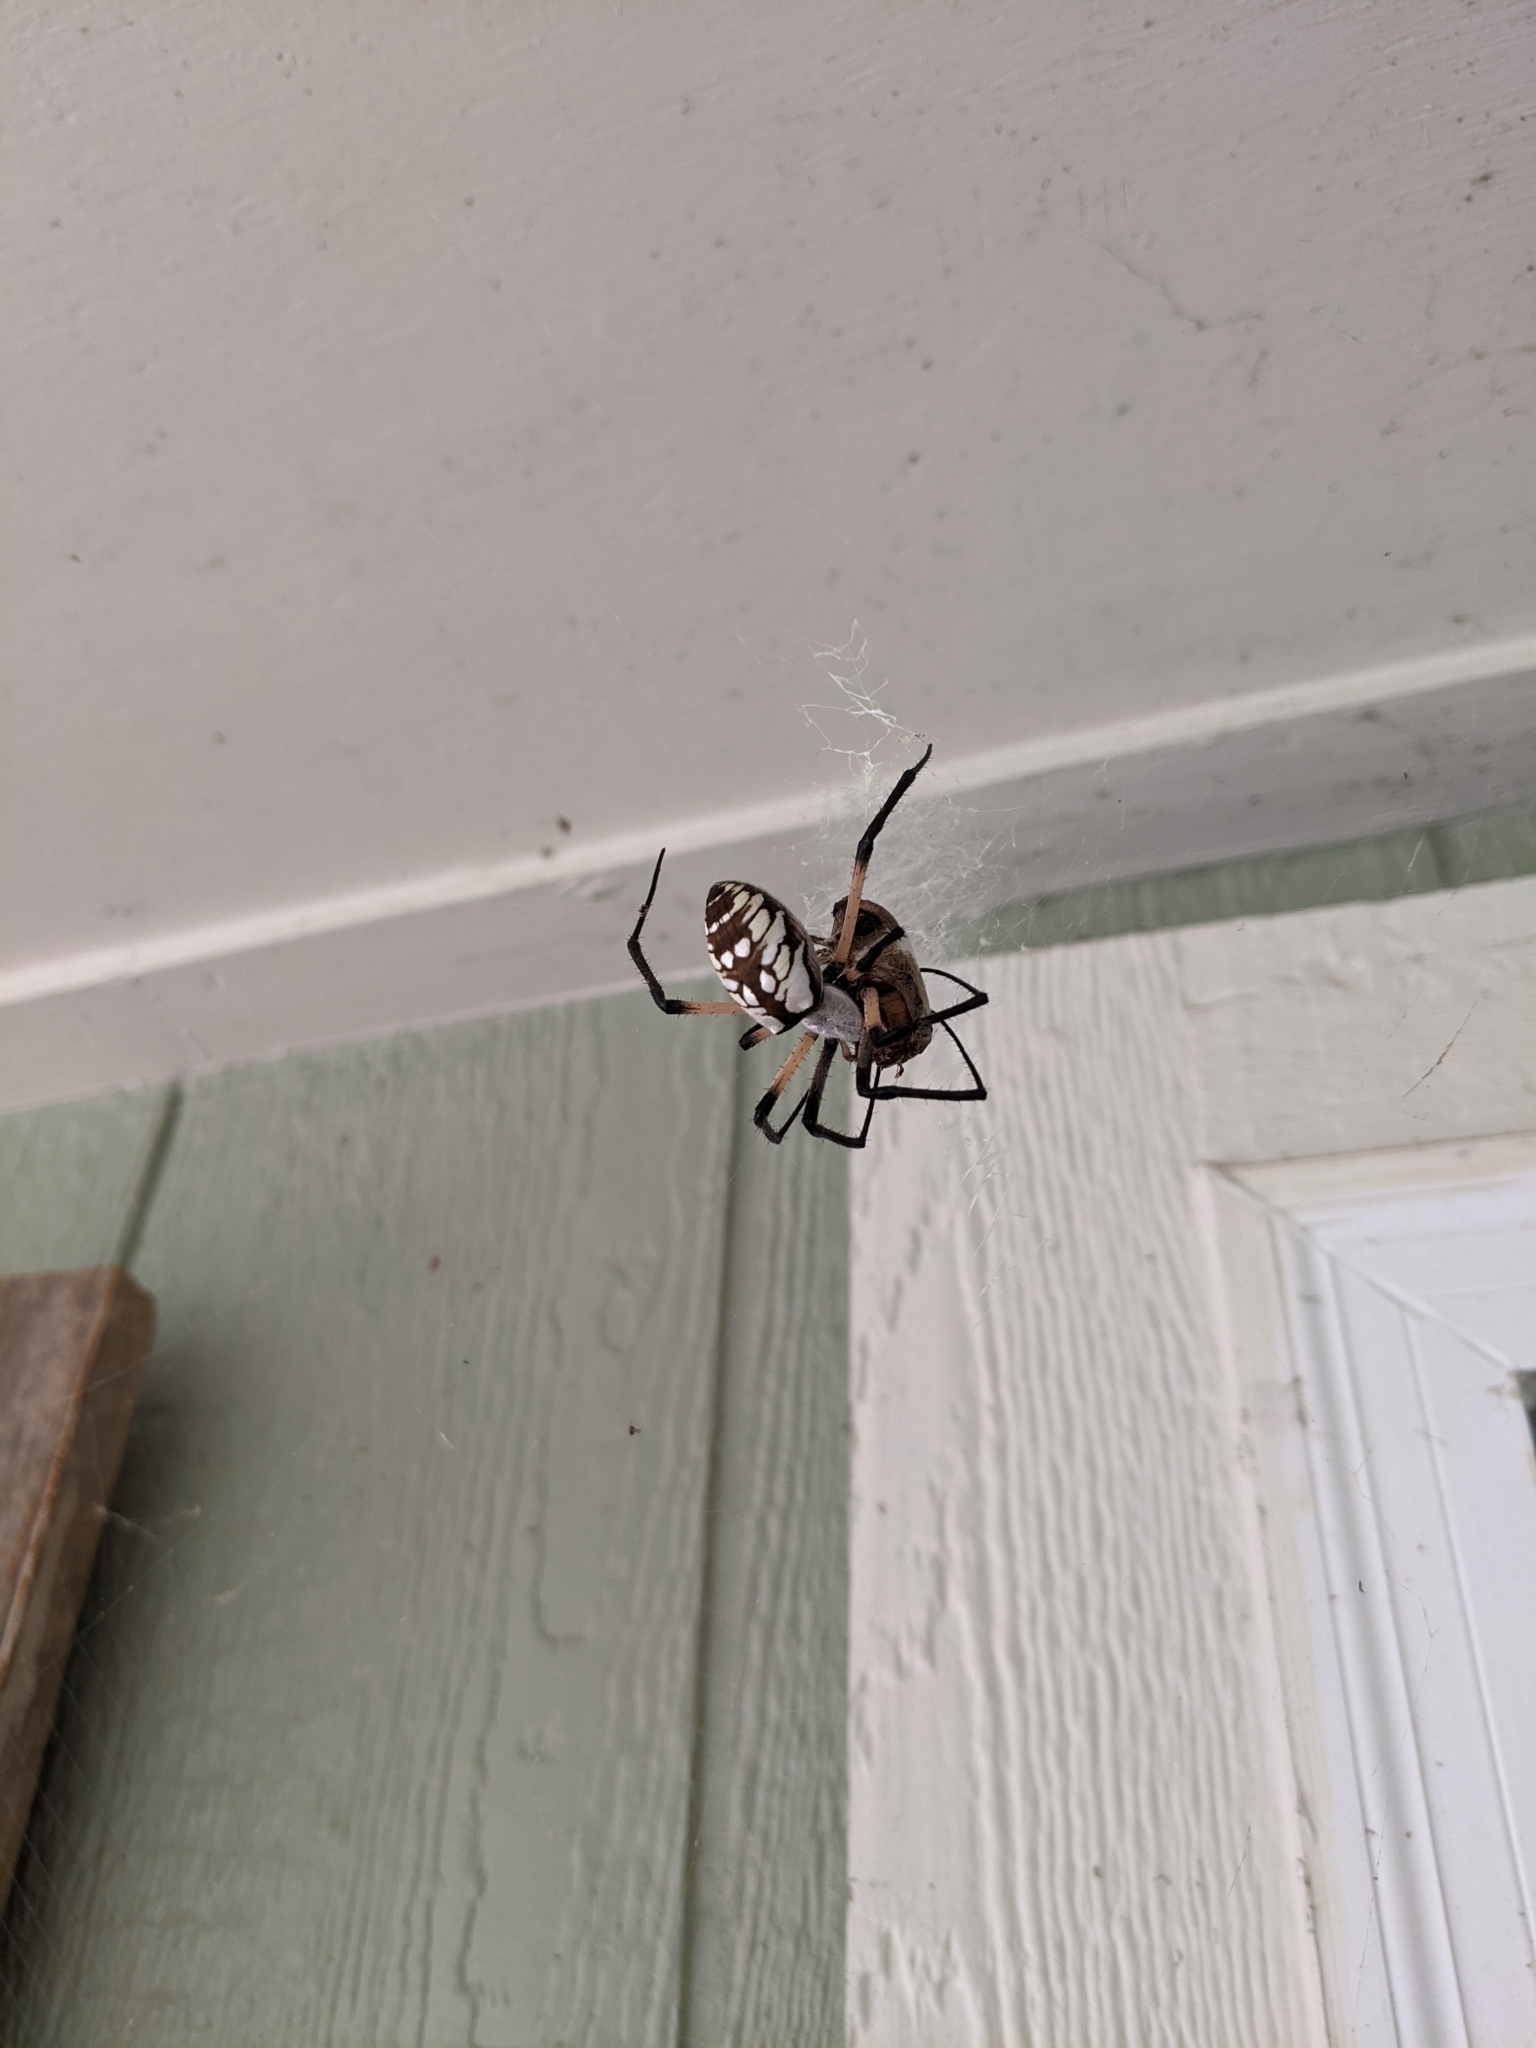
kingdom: Animalia
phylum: Arthropoda
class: Arachnida
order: Araneae
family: Araneidae
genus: Argiope
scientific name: Argiope aurantia
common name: Orb weavers
